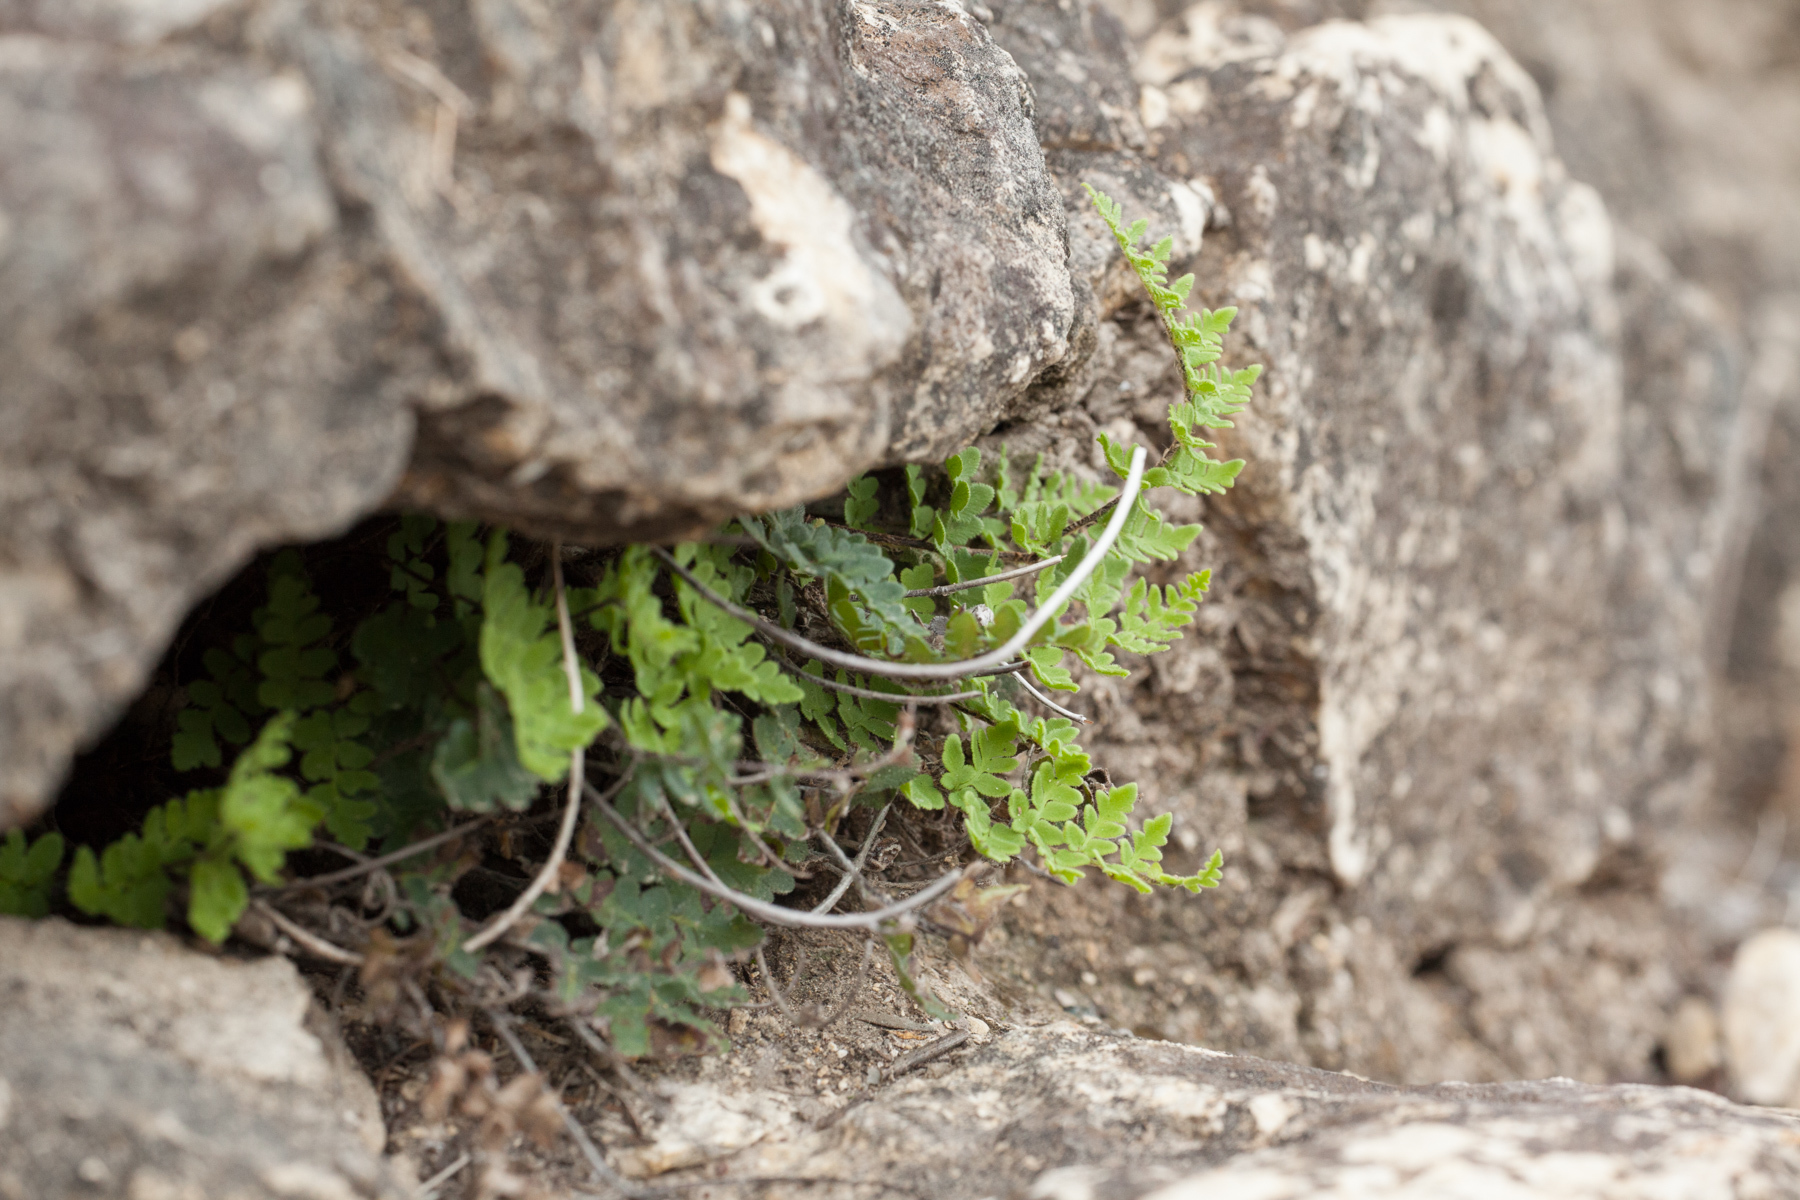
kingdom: Plantae
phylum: Tracheophyta
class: Polypodiopsida
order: Polypodiales
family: Pteridaceae
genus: Myriopteris
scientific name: Myriopteris scabra
